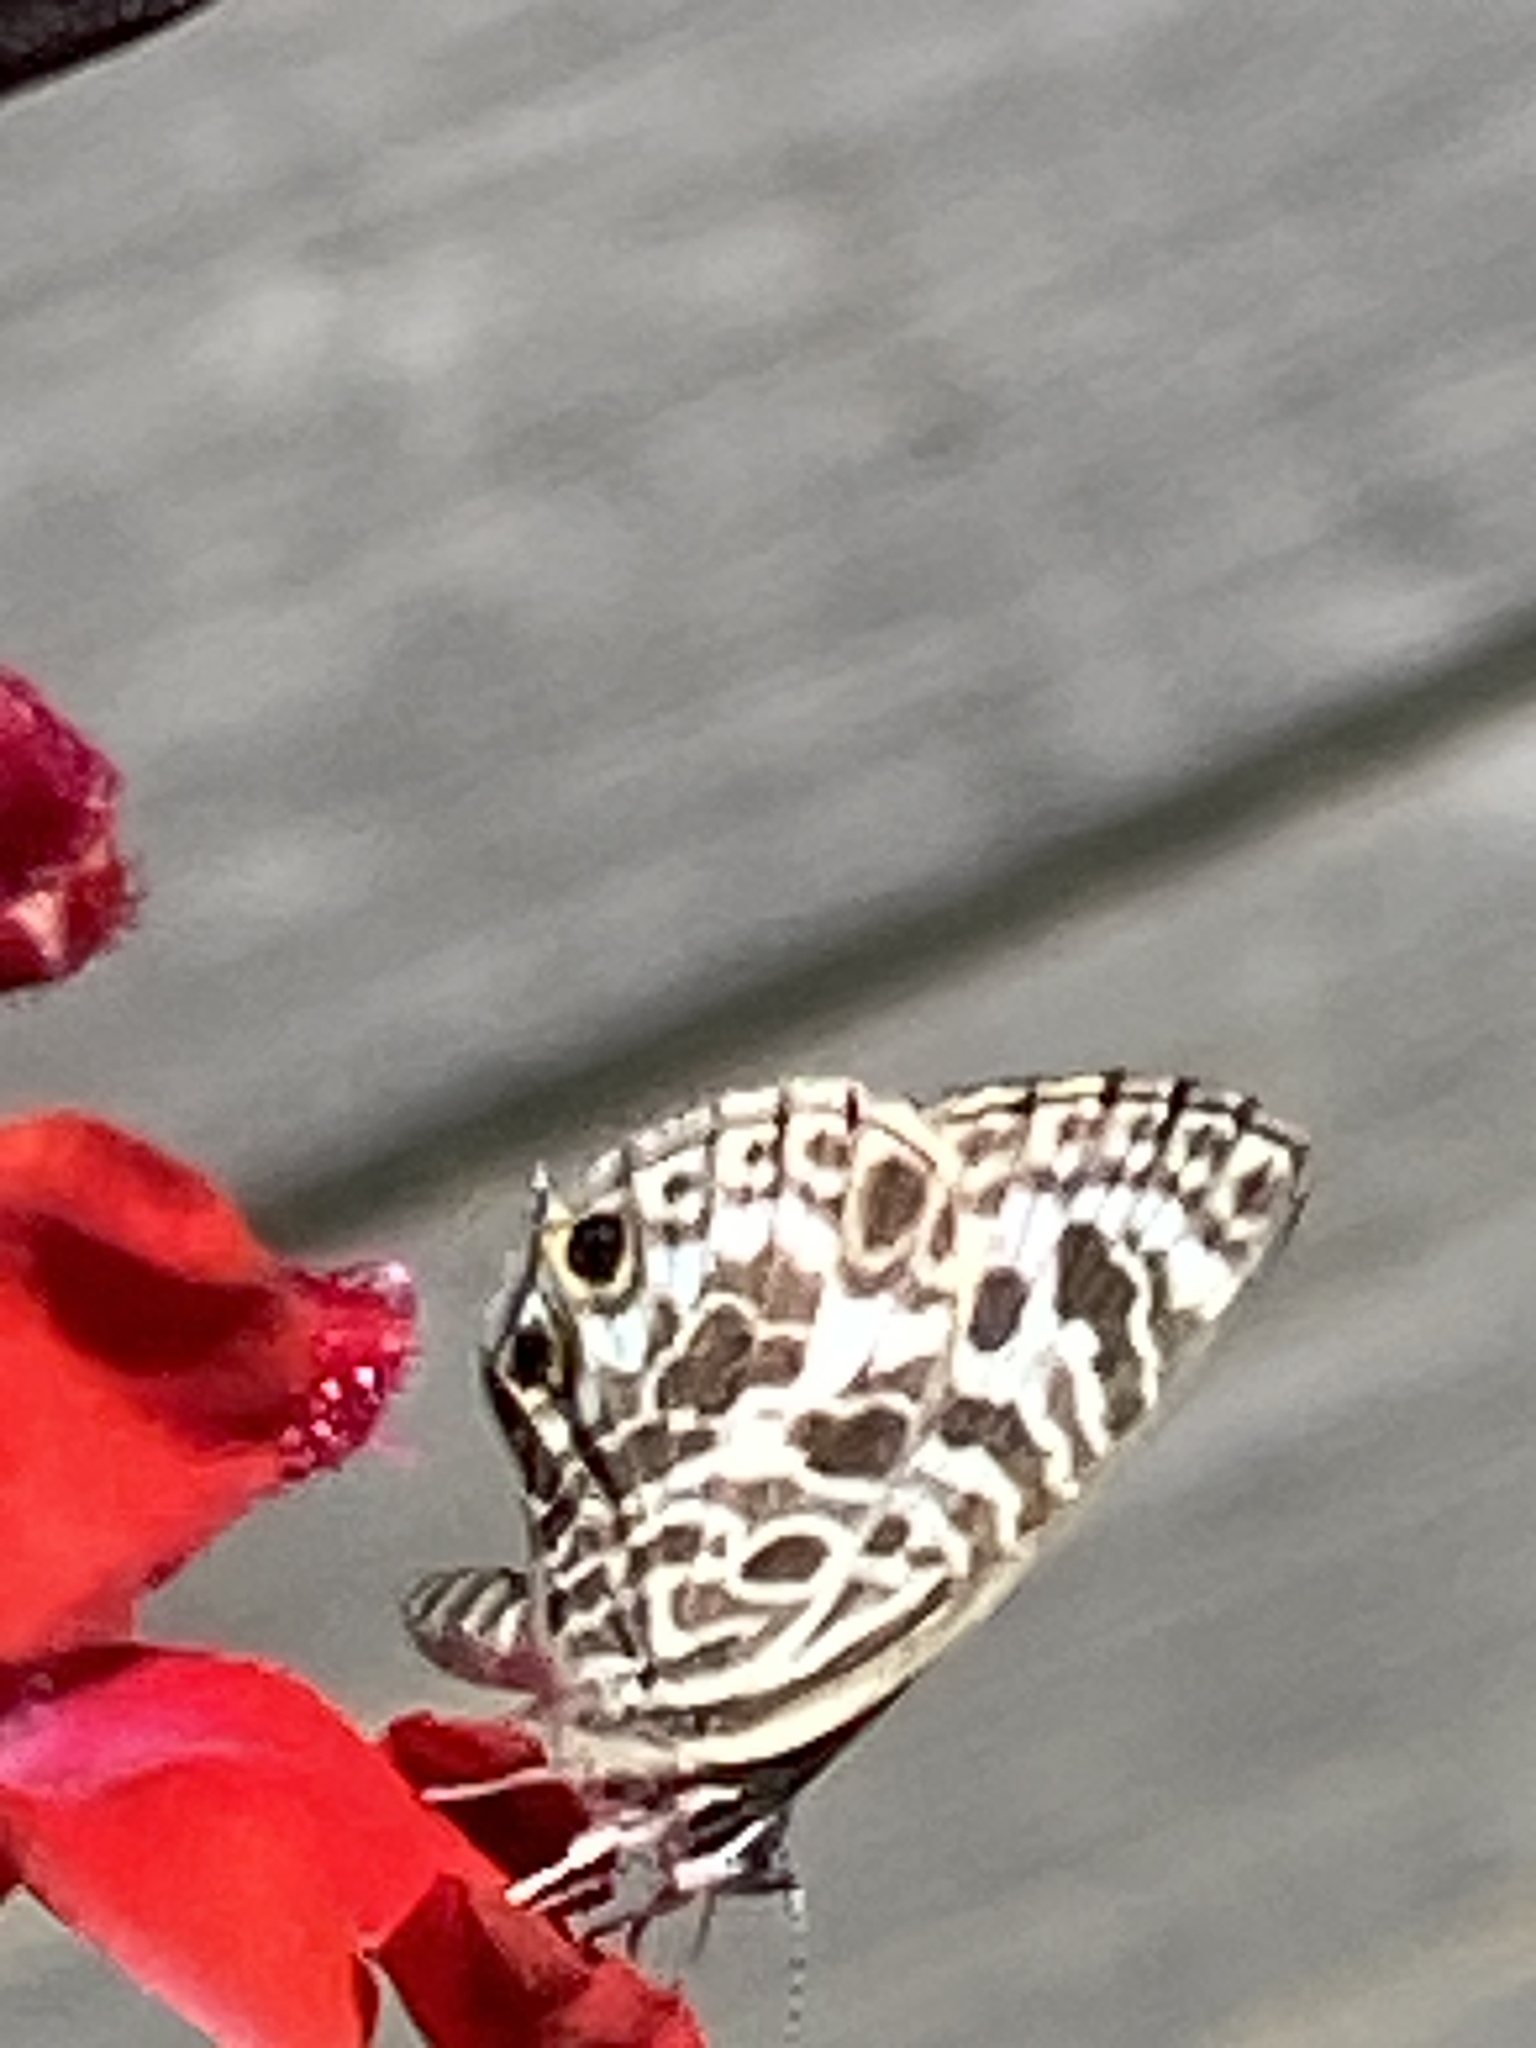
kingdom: Animalia
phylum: Arthropoda
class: Insecta
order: Lepidoptera
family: Lycaenidae
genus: Leptotes
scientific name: Leptotes plinius
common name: Zebra blue
